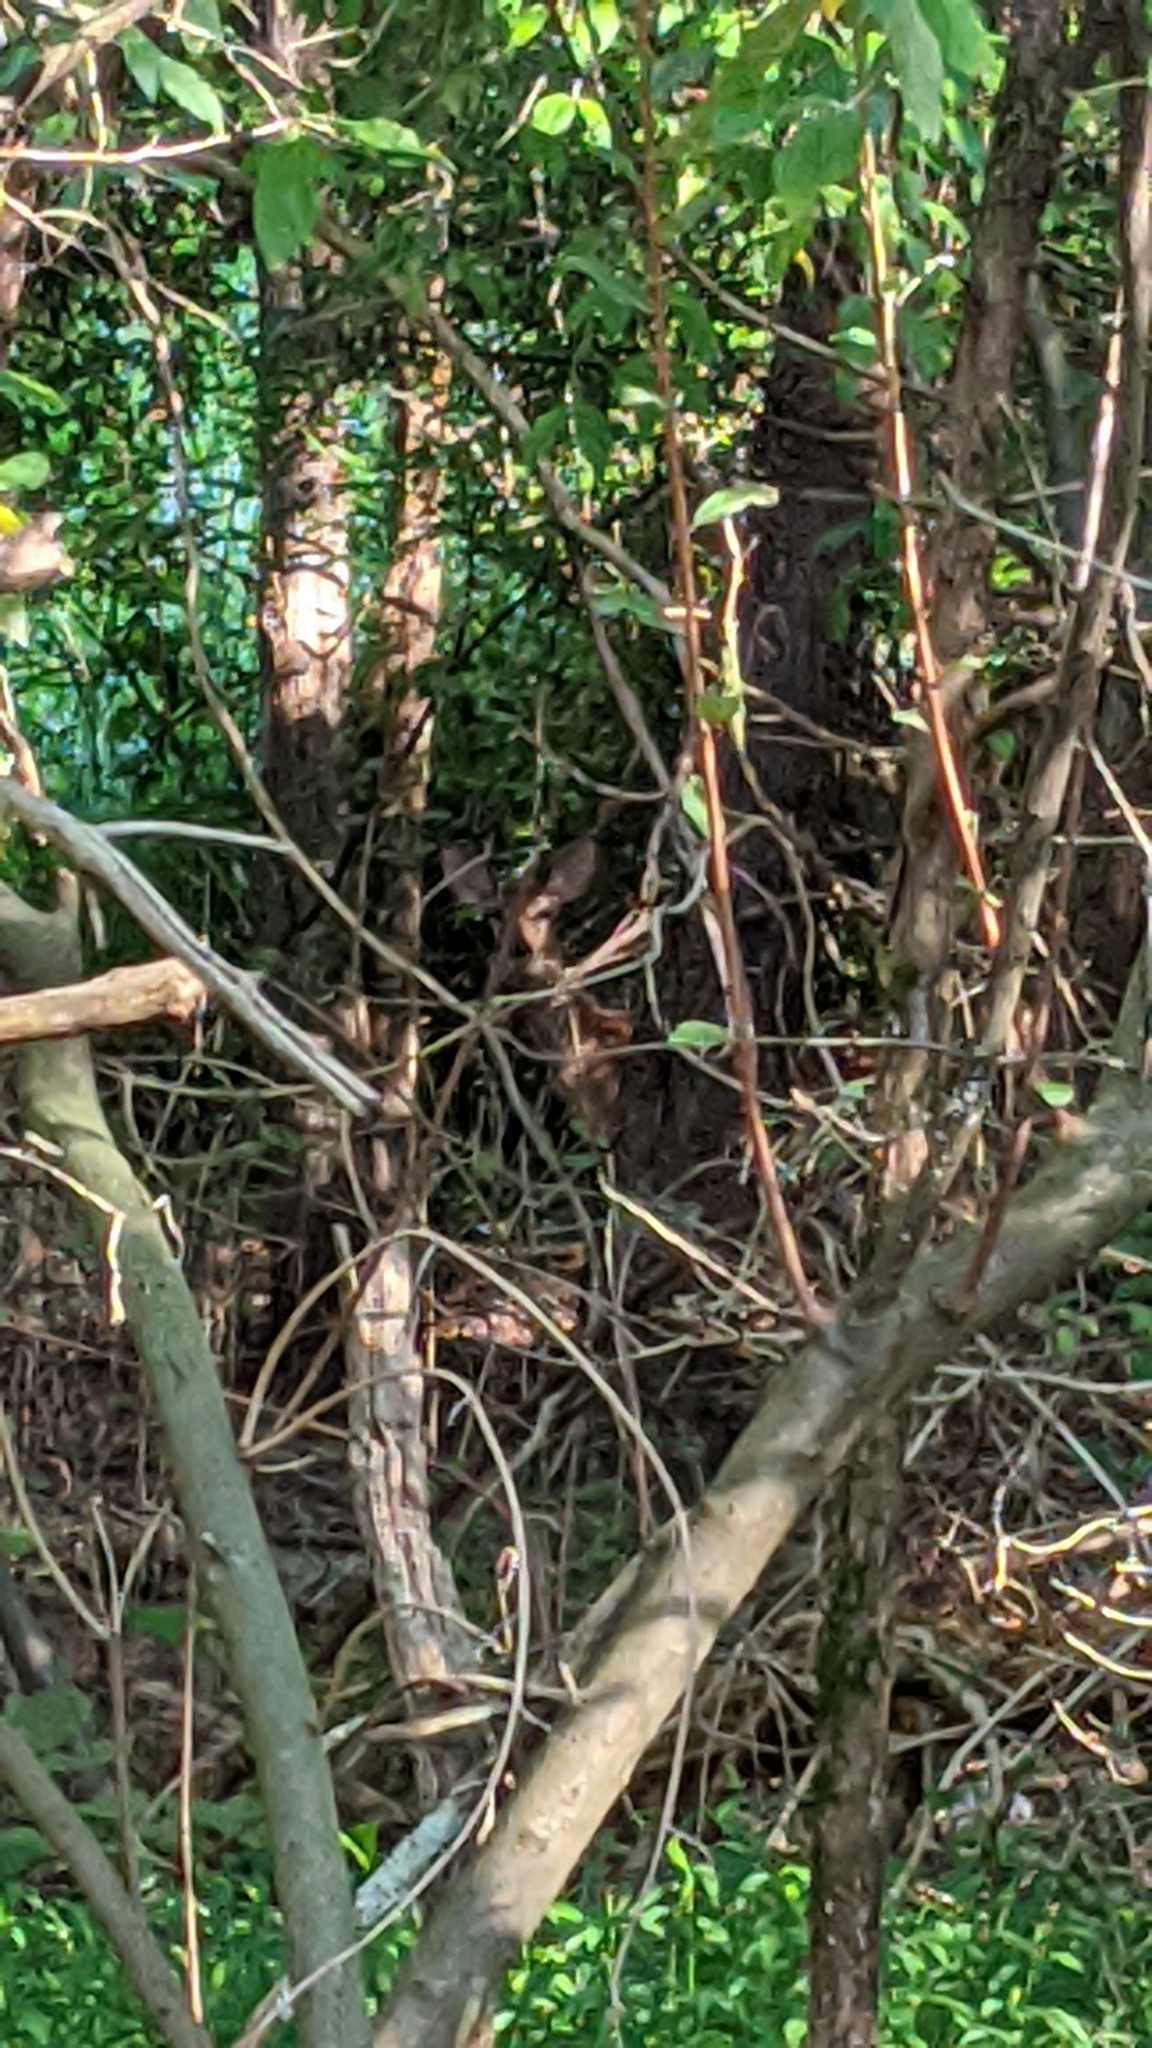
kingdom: Animalia
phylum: Chordata
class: Mammalia
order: Artiodactyla
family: Cervidae
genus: Odocoileus
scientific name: Odocoileus virginianus
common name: White-tailed deer
